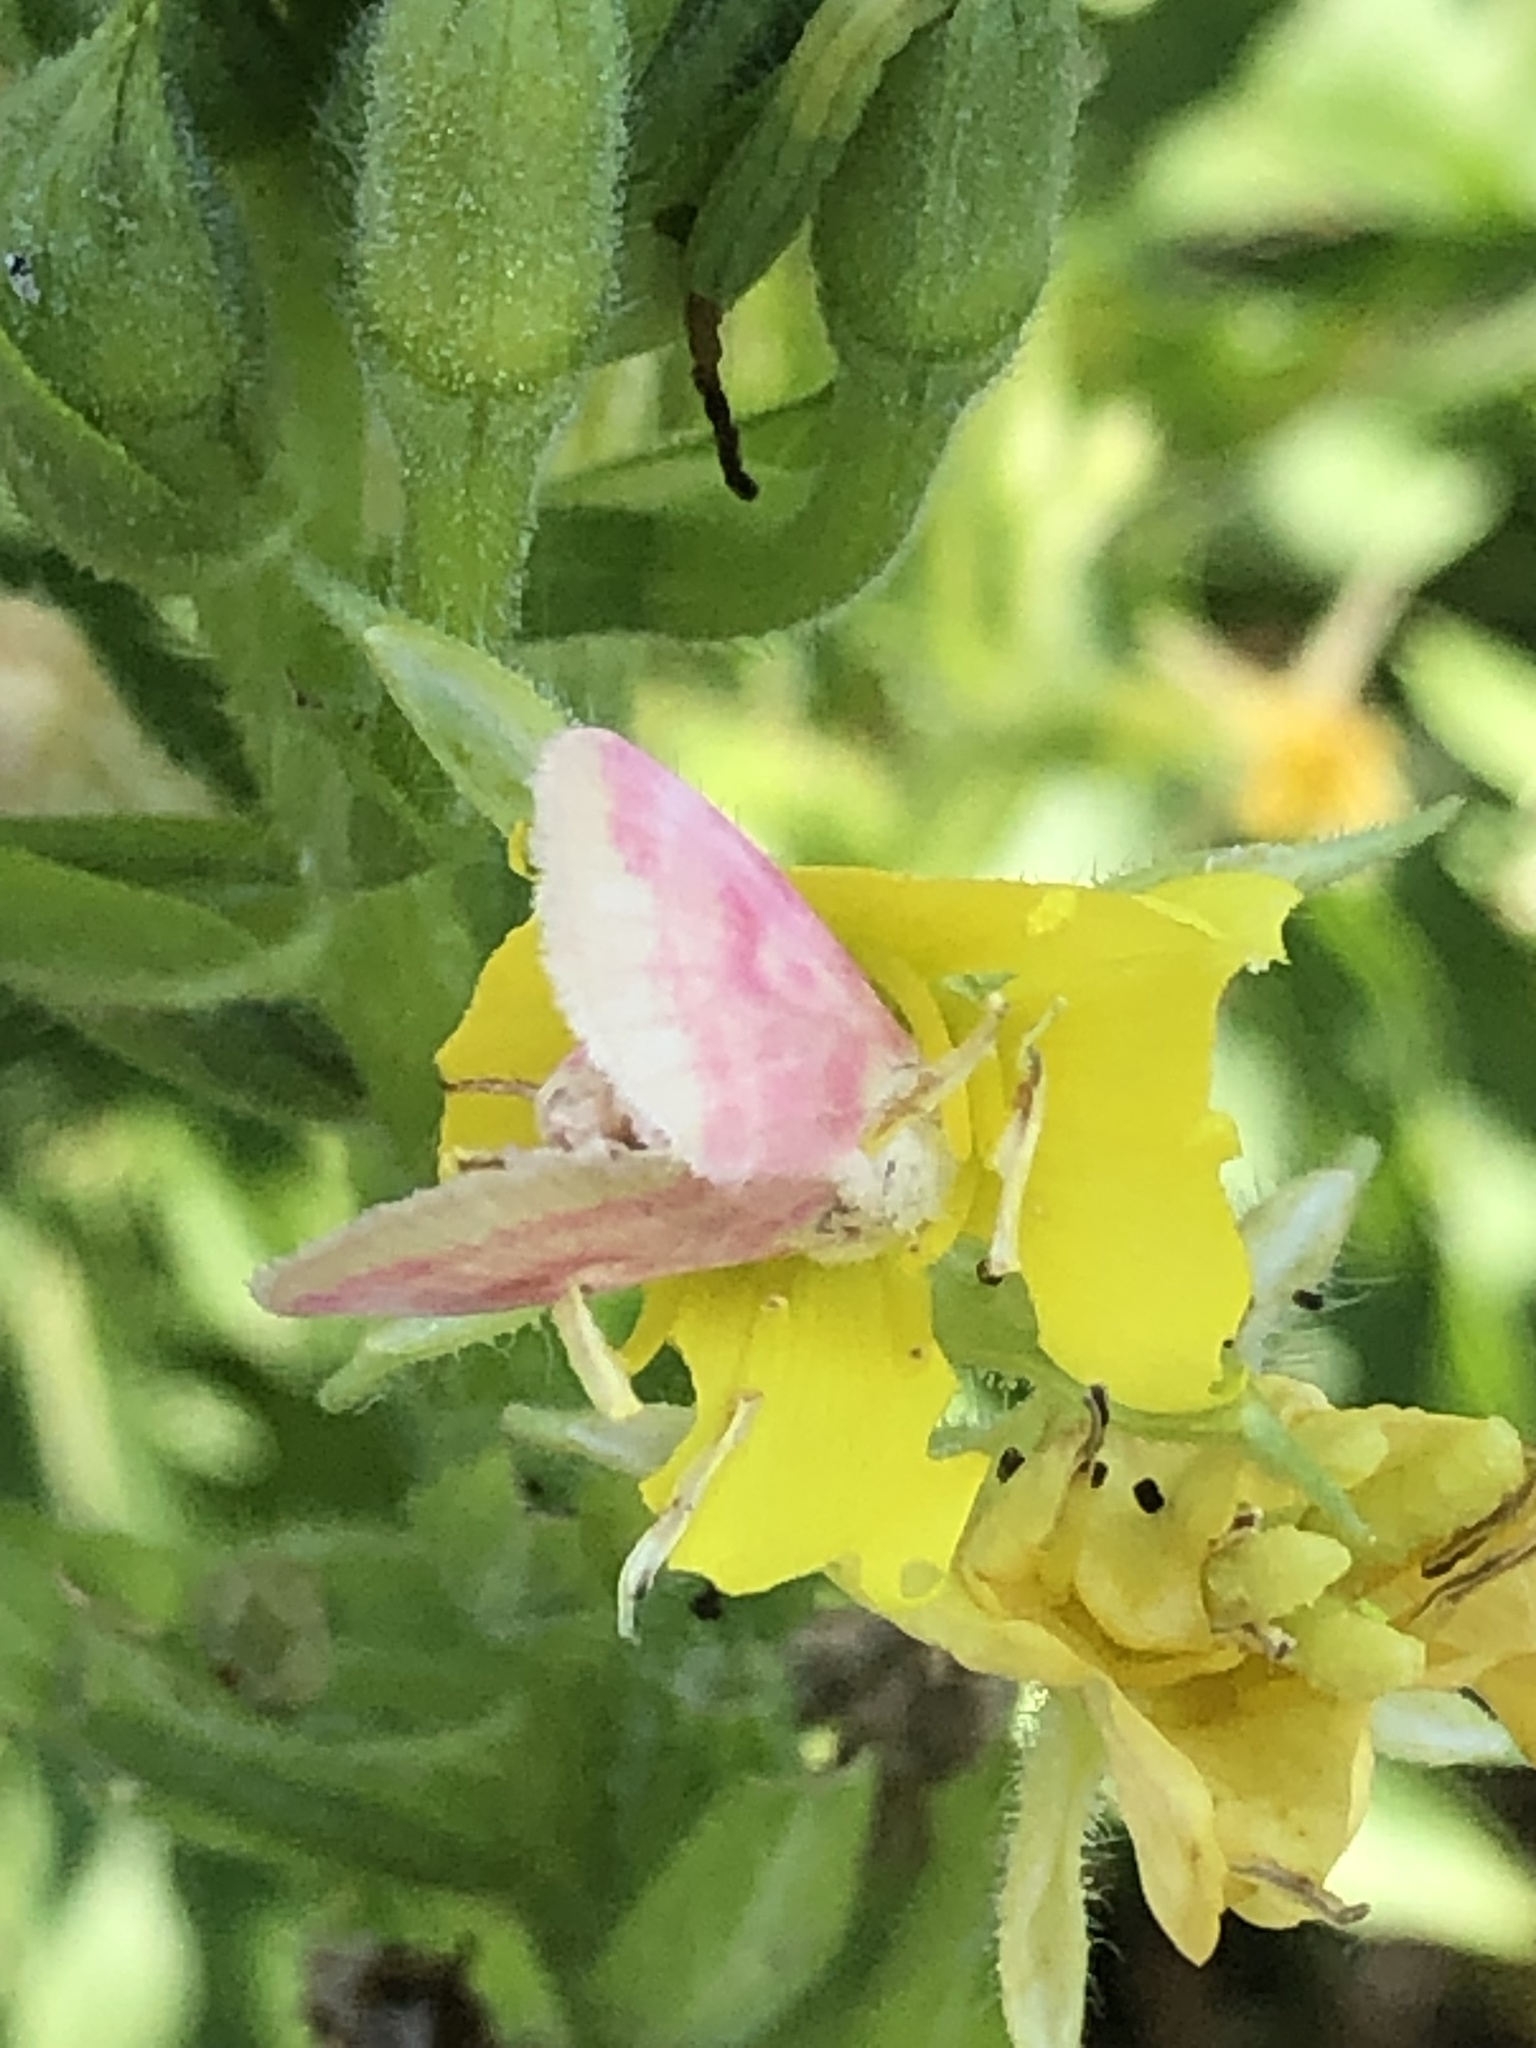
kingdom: Animalia
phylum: Arthropoda
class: Insecta
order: Lepidoptera
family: Noctuidae
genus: Schinia
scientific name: Schinia florida
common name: Primrose moth
